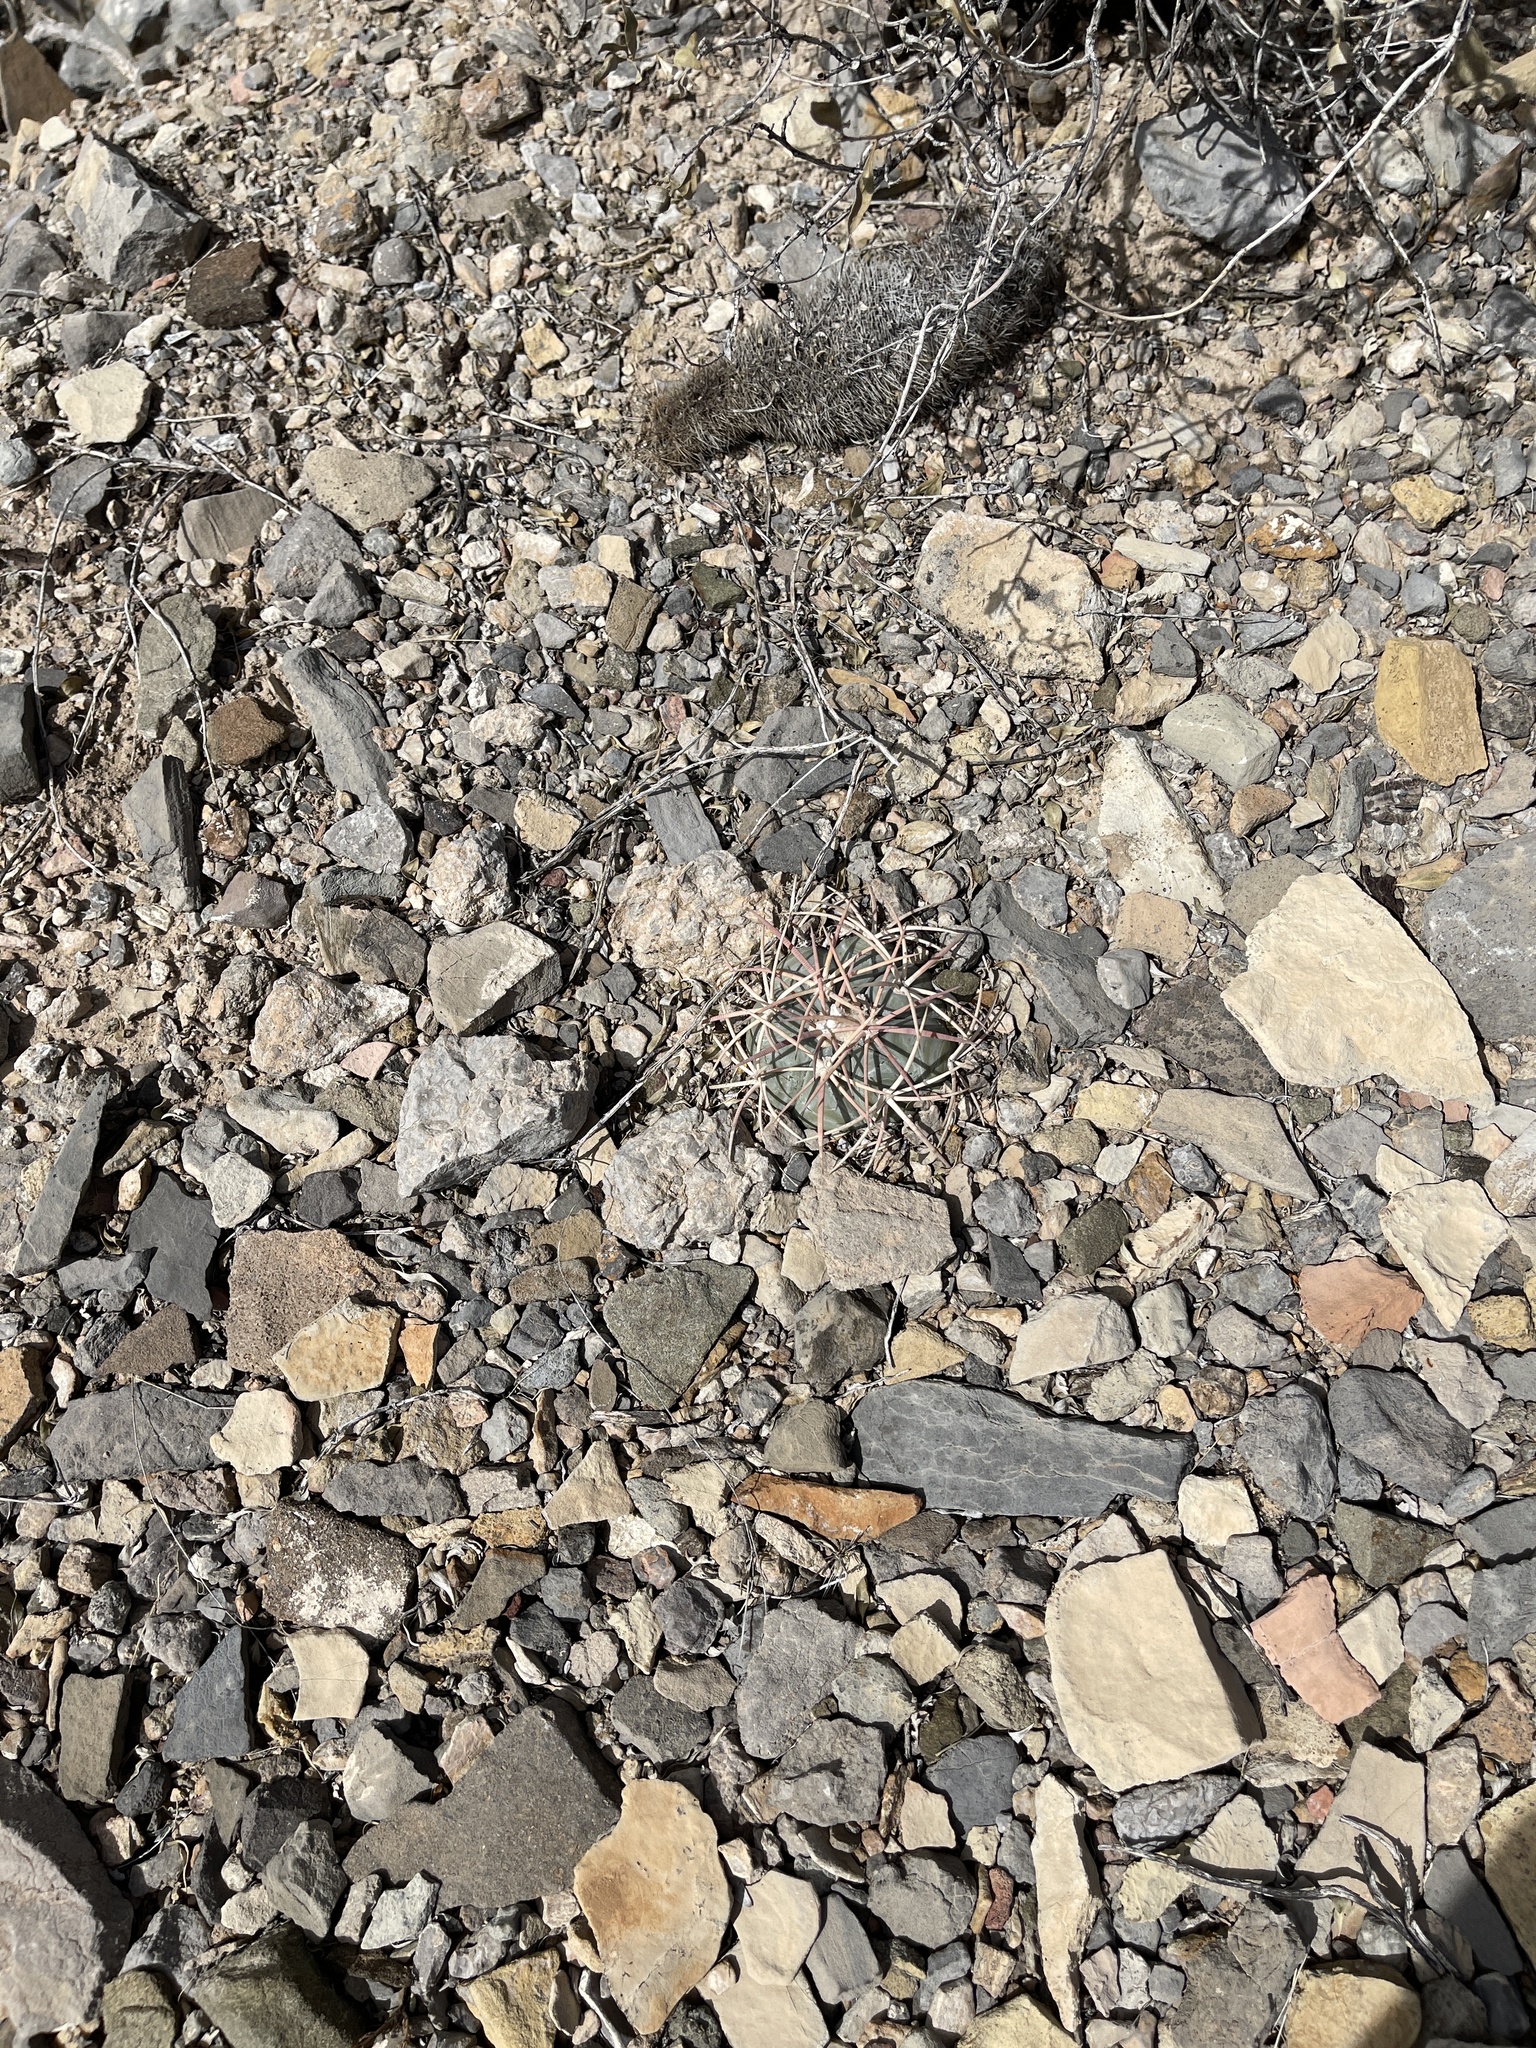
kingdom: Plantae
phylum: Tracheophyta
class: Magnoliopsida
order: Caryophyllales
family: Cactaceae
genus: Echinocactus
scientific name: Echinocactus horizonthalonius
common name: Devilshead
